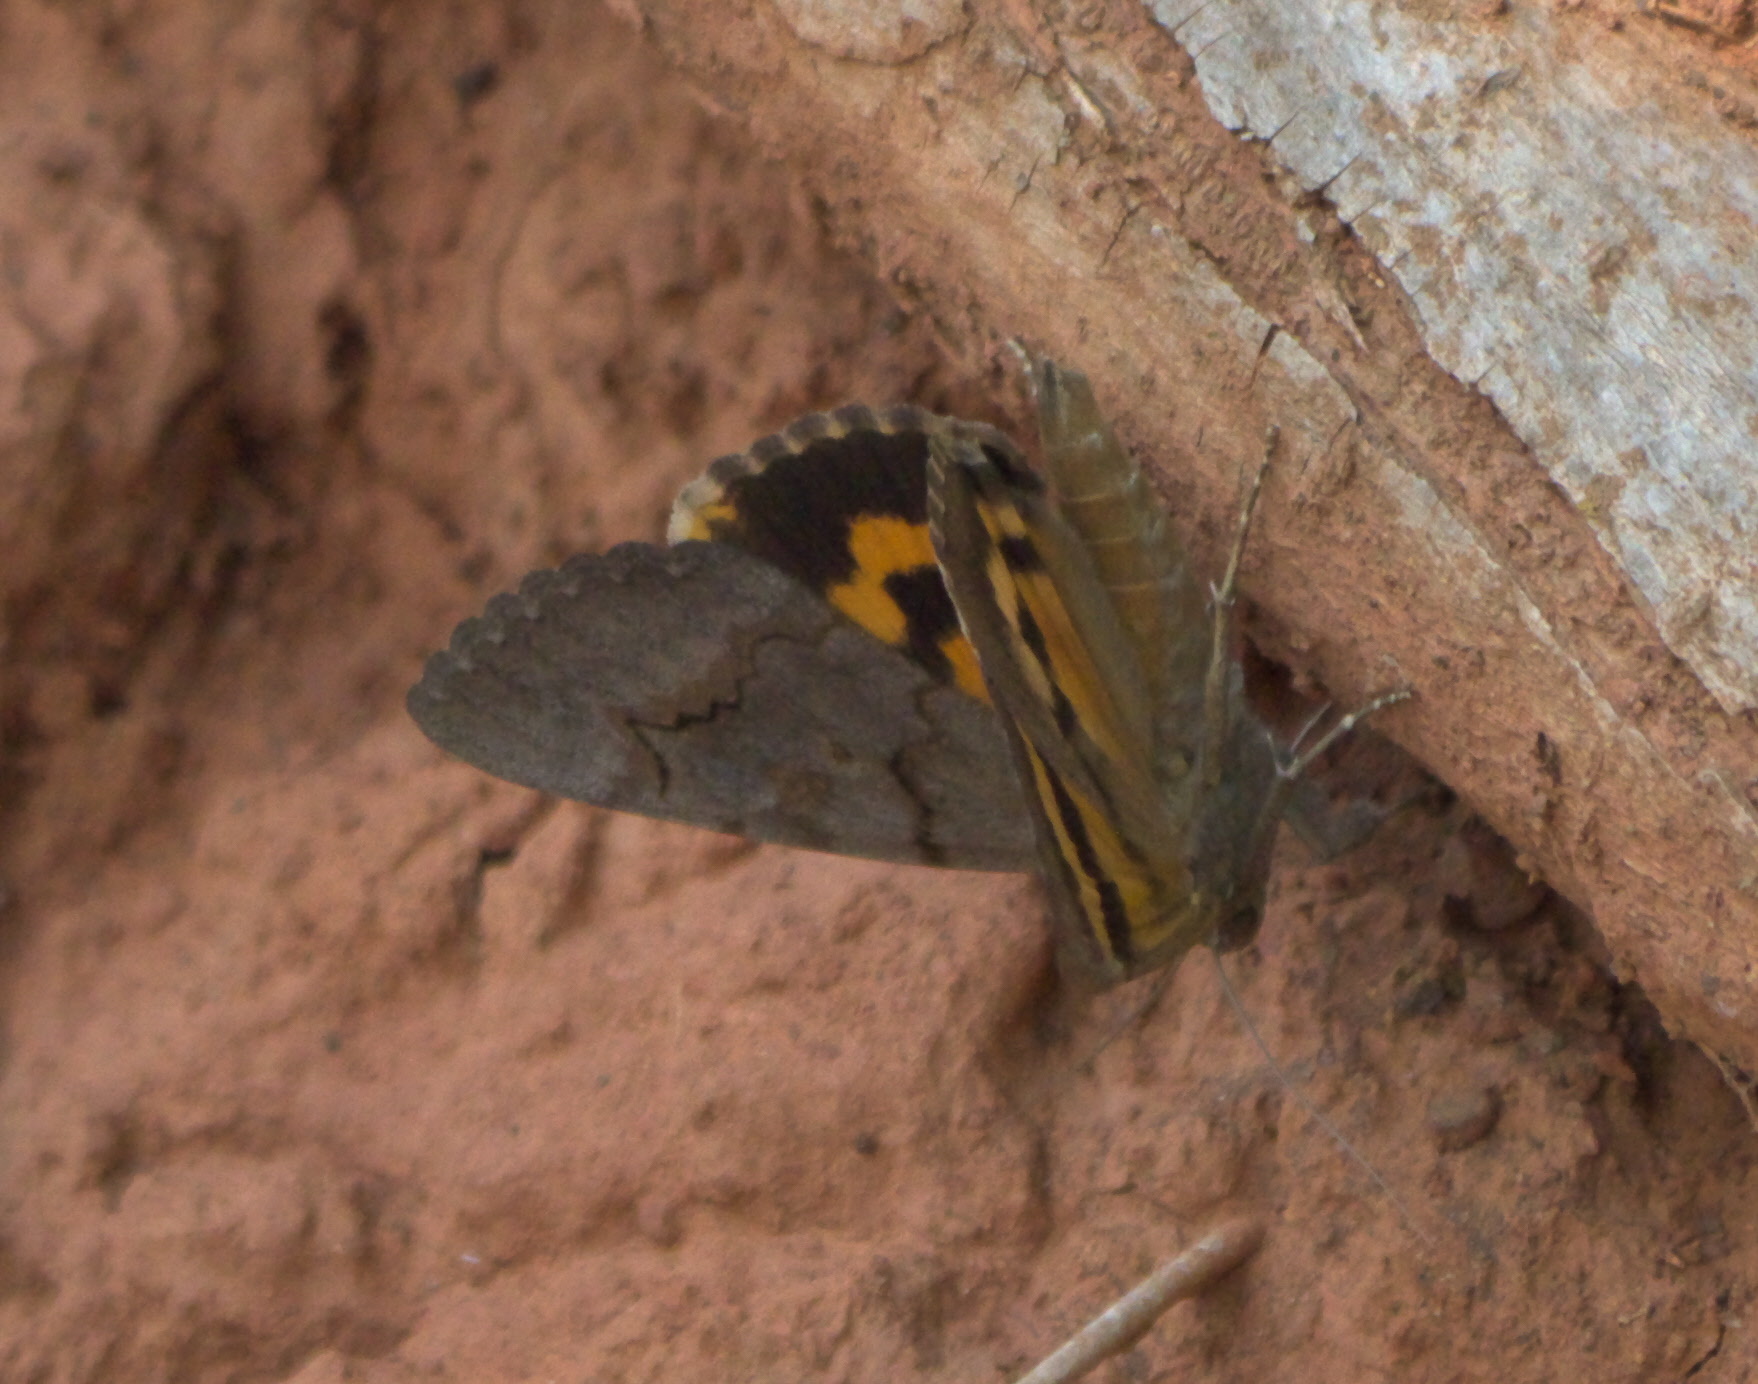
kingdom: Animalia
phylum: Arthropoda
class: Insecta
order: Lepidoptera
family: Erebidae
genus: Catocala
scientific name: Catocala consors
